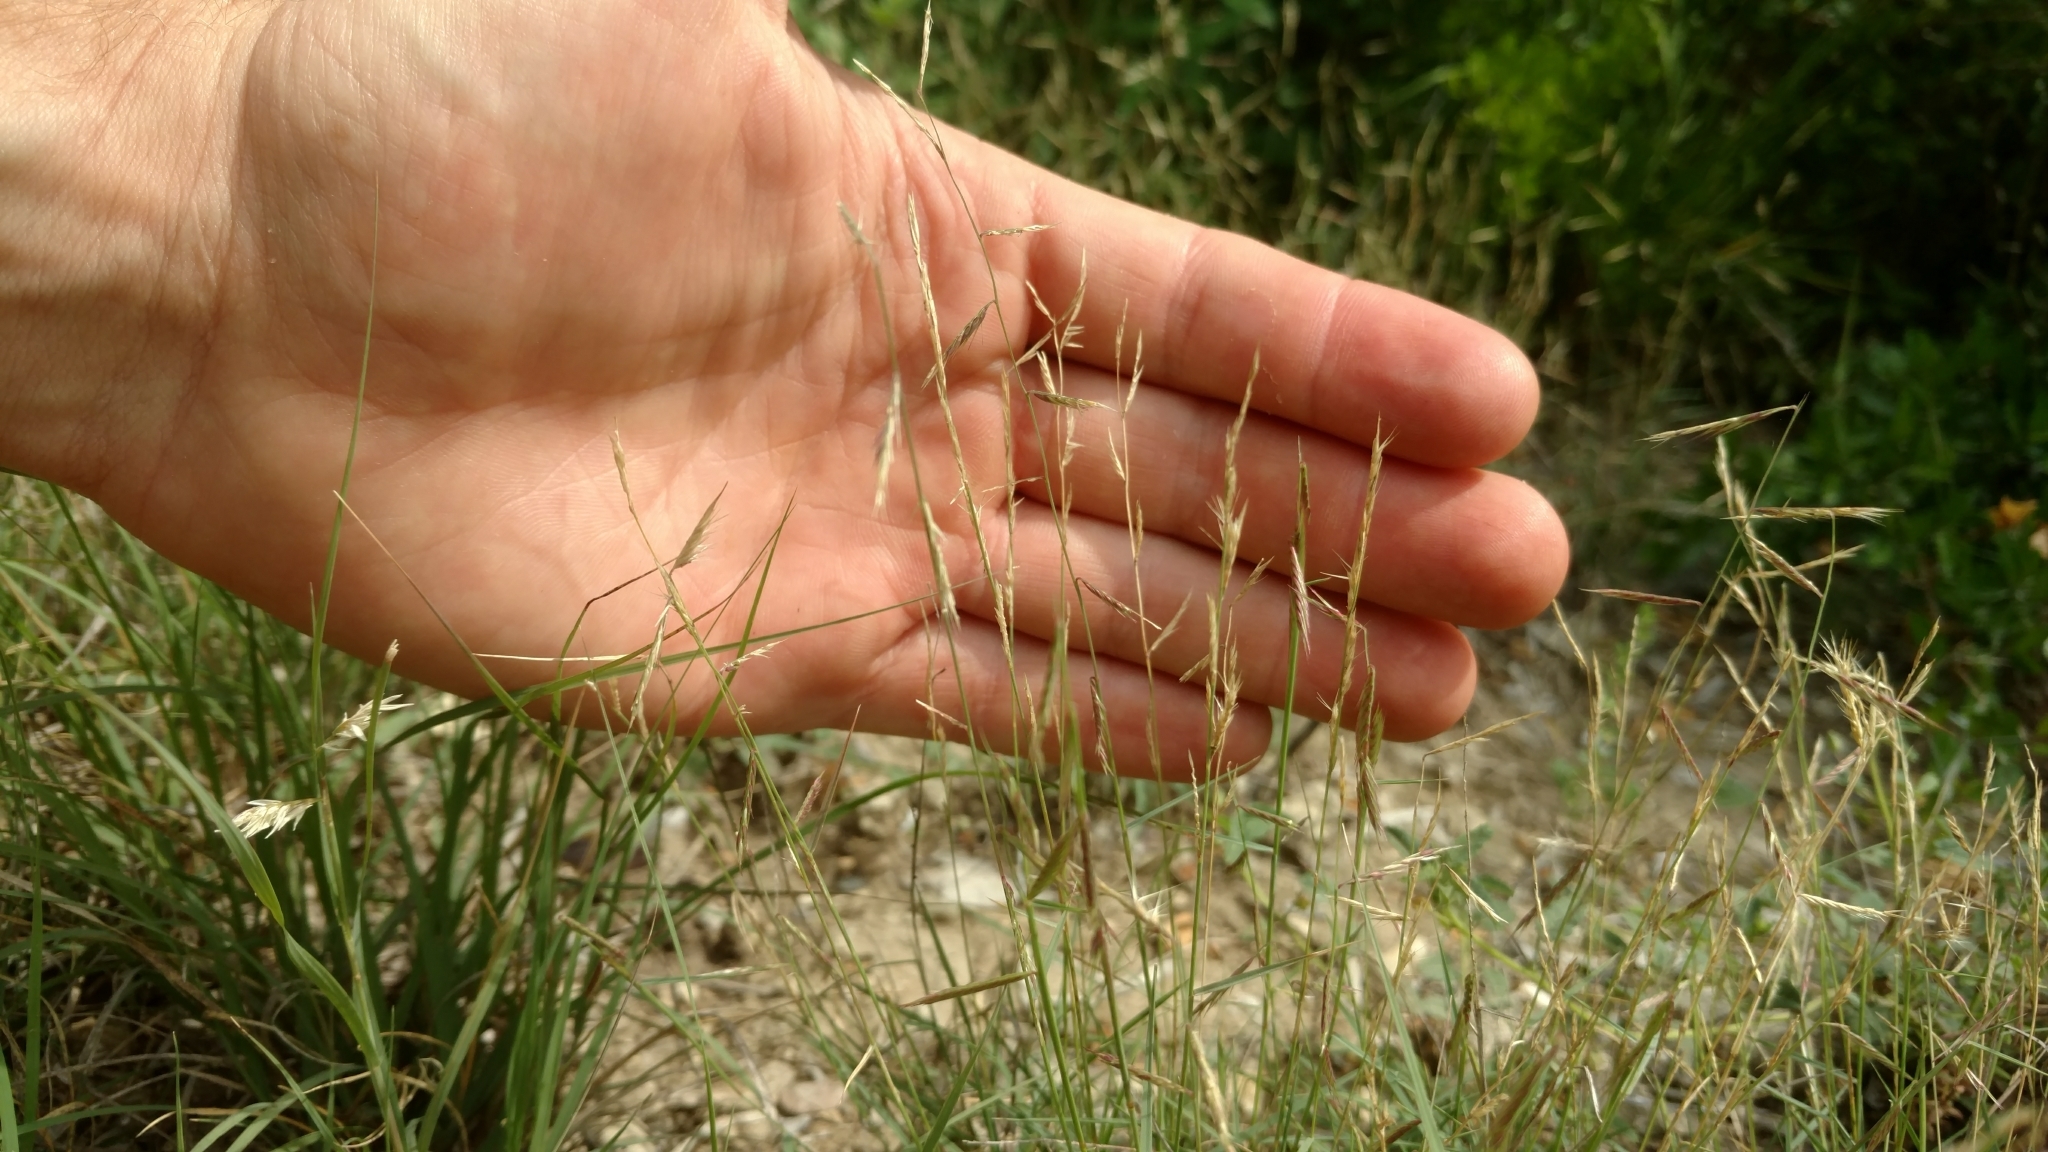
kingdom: Plantae
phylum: Tracheophyta
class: Liliopsida
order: Poales
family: Poaceae
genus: Bouteloua
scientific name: Bouteloua trifida
